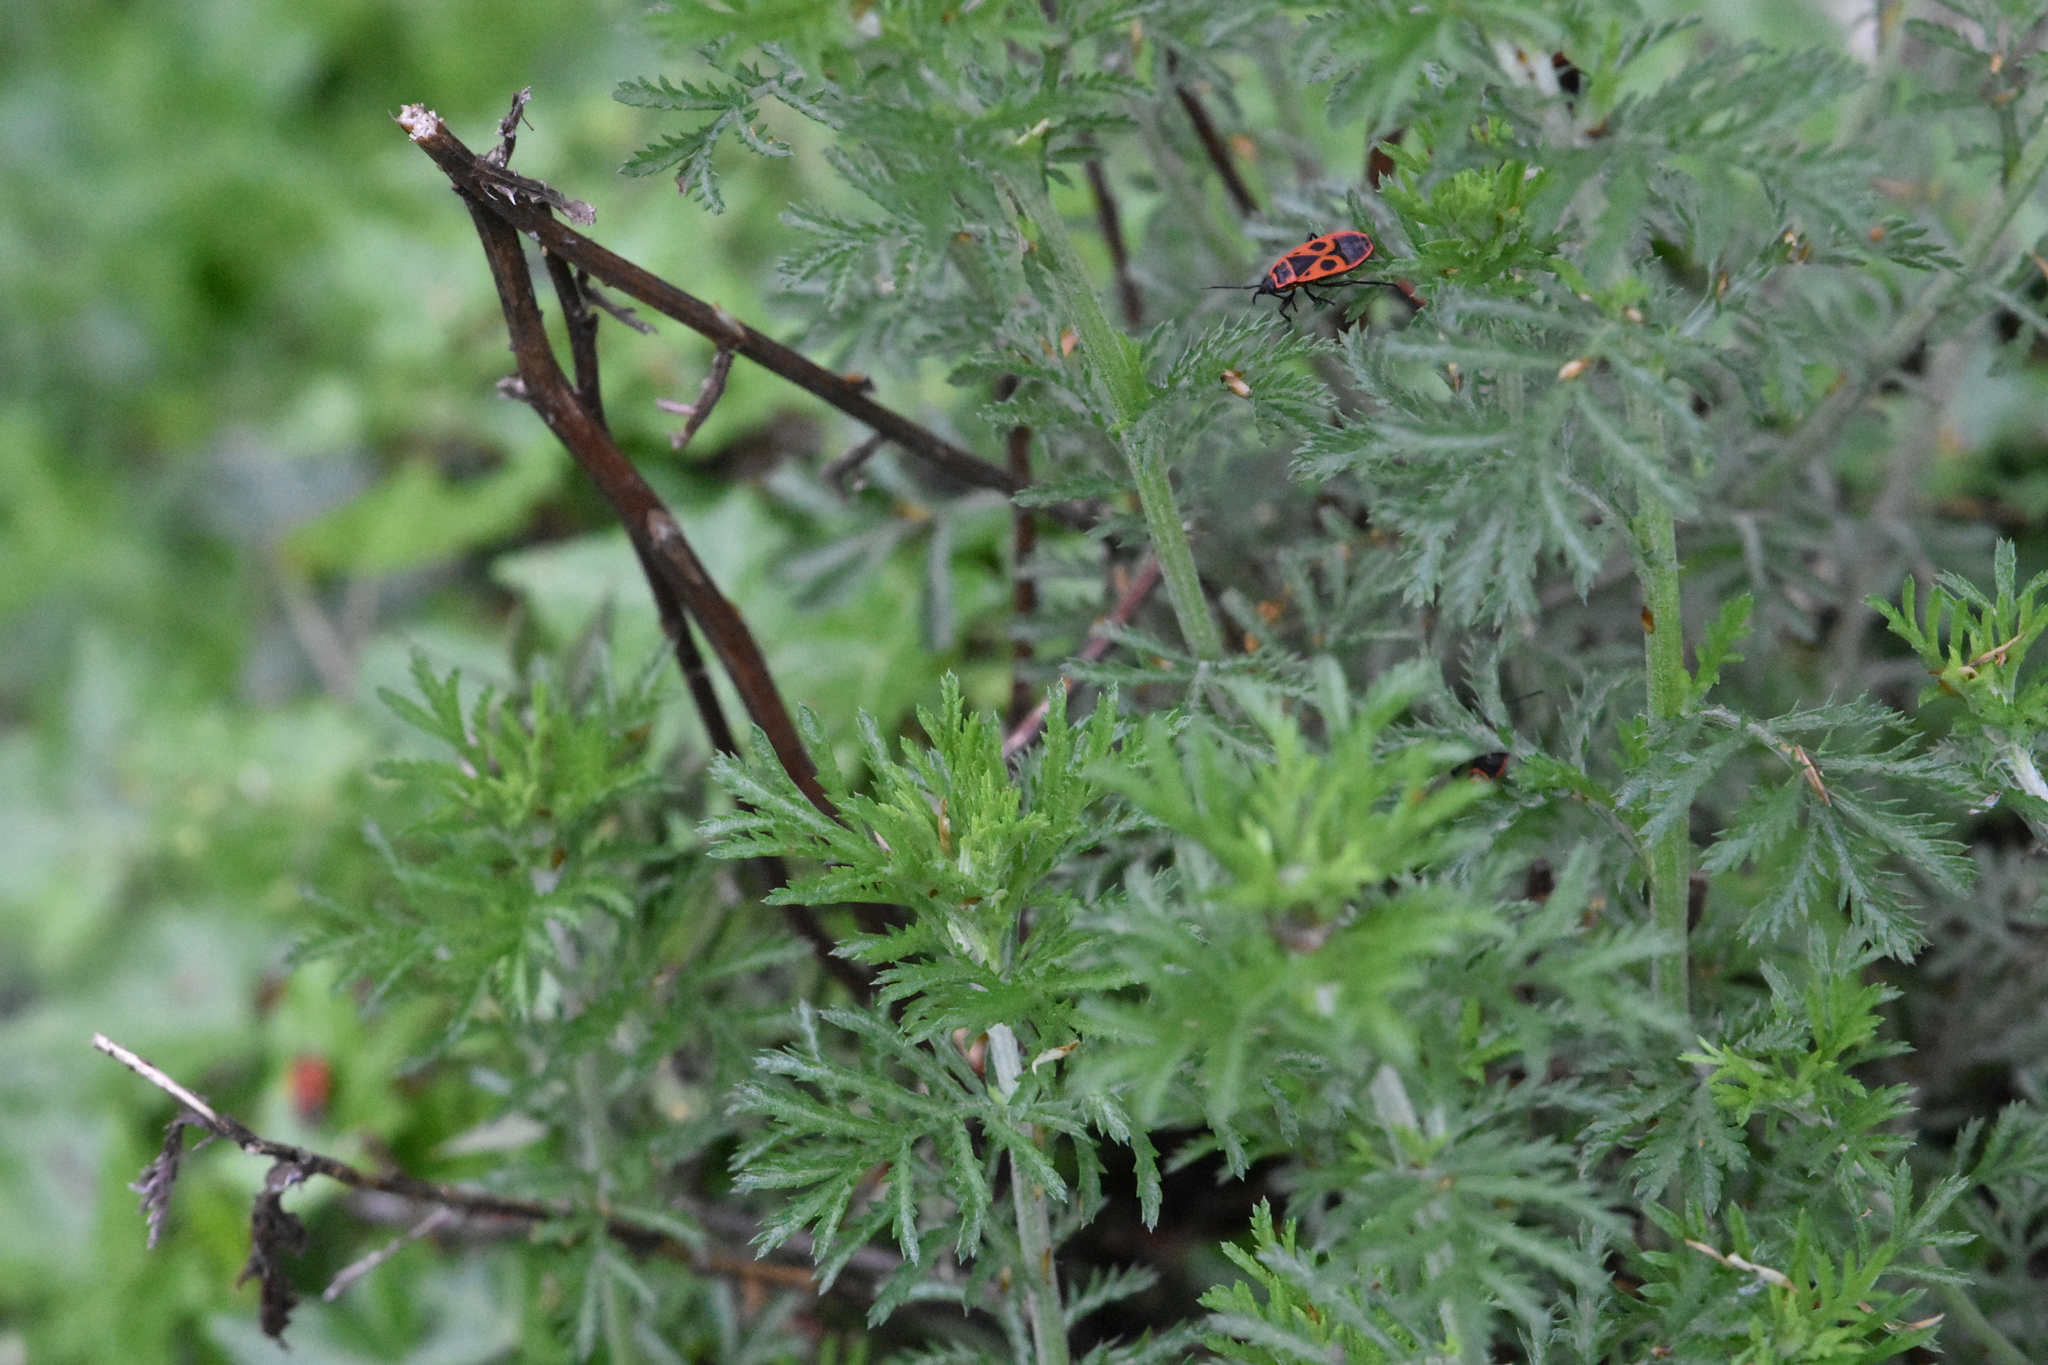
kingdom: Animalia
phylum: Arthropoda
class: Insecta
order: Hemiptera
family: Pyrrhocoridae
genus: Pyrrhocoris
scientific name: Pyrrhocoris apterus
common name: Firebug
